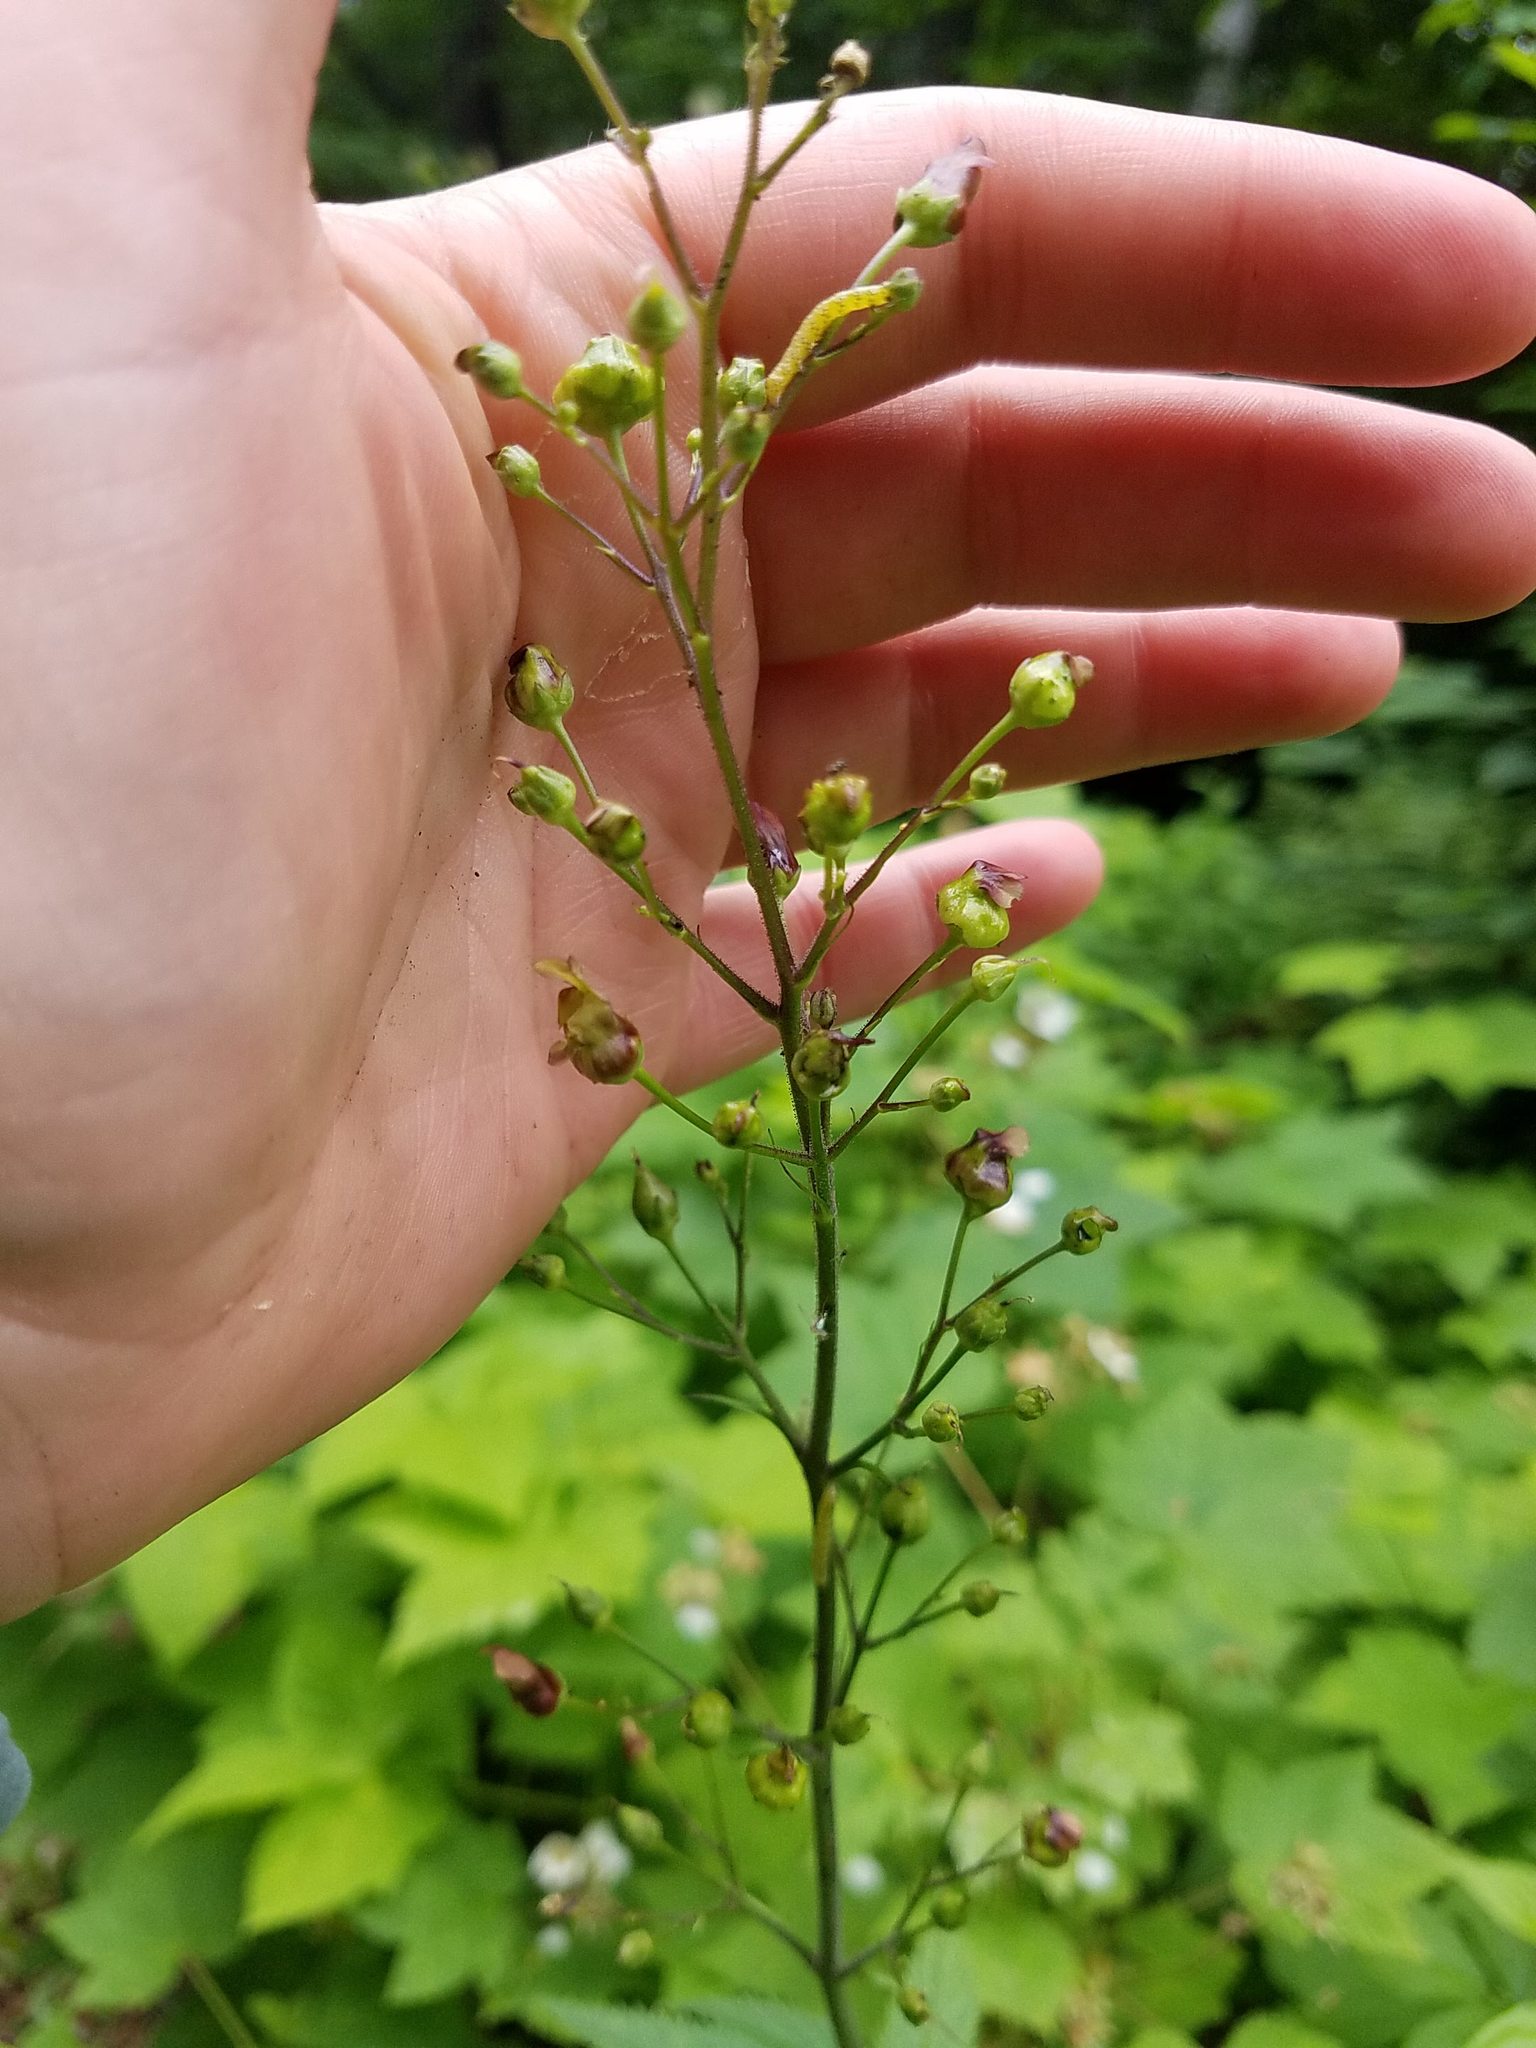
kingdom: Plantae
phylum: Tracheophyta
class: Magnoliopsida
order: Lamiales
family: Scrophulariaceae
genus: Scrophularia
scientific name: Scrophularia lanceolata
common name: American figwort
